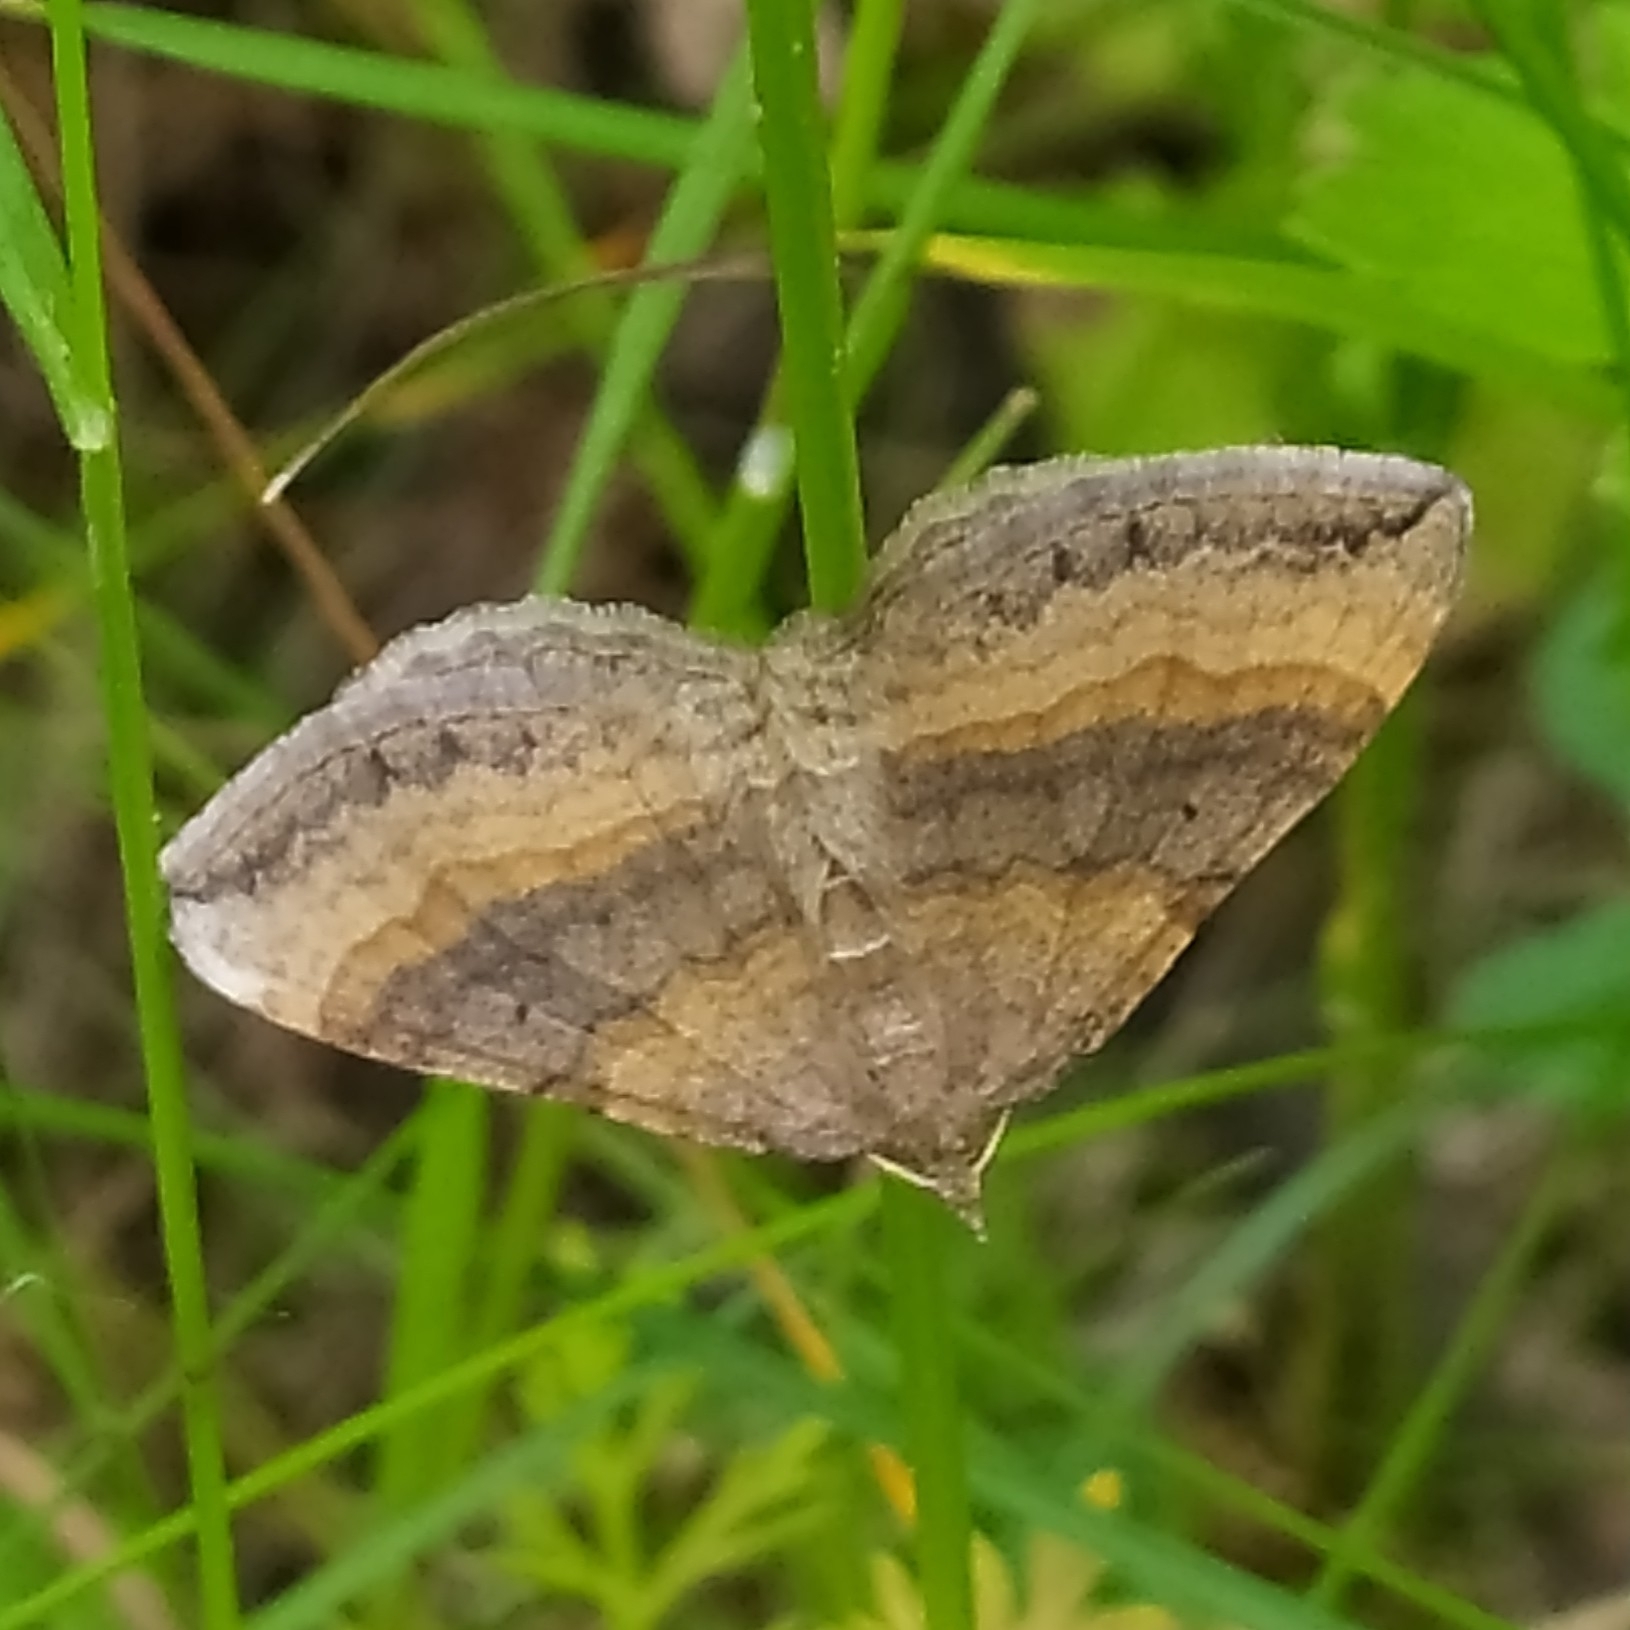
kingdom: Animalia
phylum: Arthropoda
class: Insecta
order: Lepidoptera
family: Geometridae
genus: Scotopteryx
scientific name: Scotopteryx chenopodiata
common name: Shaded broad-bar
